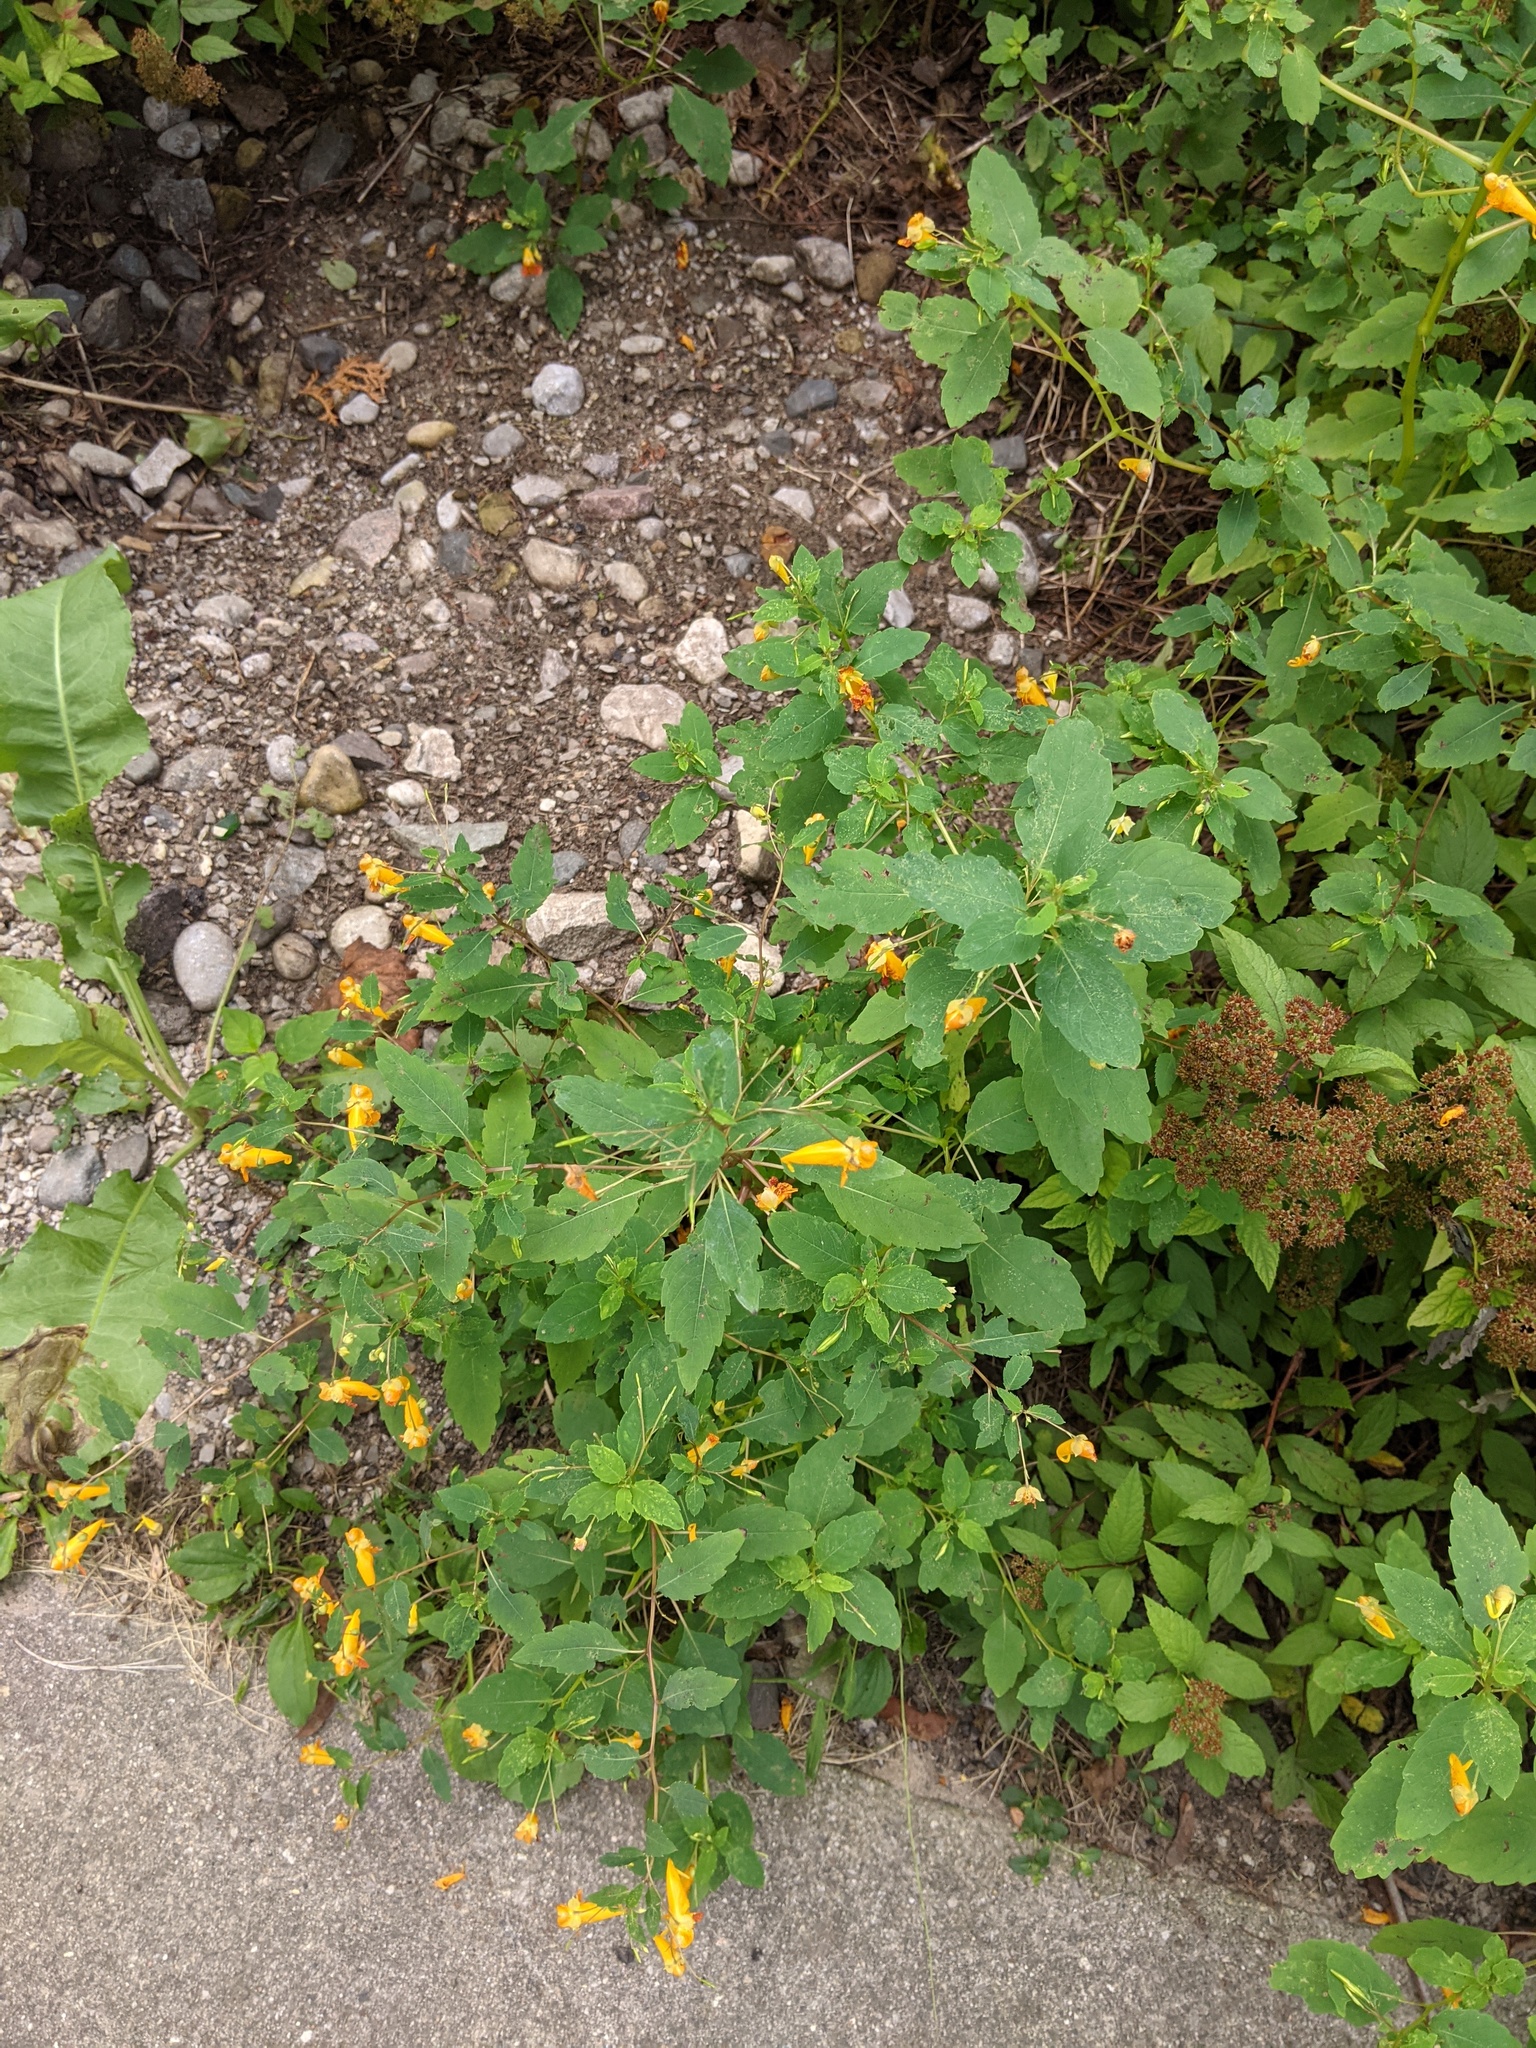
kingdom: Plantae
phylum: Tracheophyta
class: Magnoliopsida
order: Ericales
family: Balsaminaceae
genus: Impatiens
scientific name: Impatiens capensis
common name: Orange balsam
